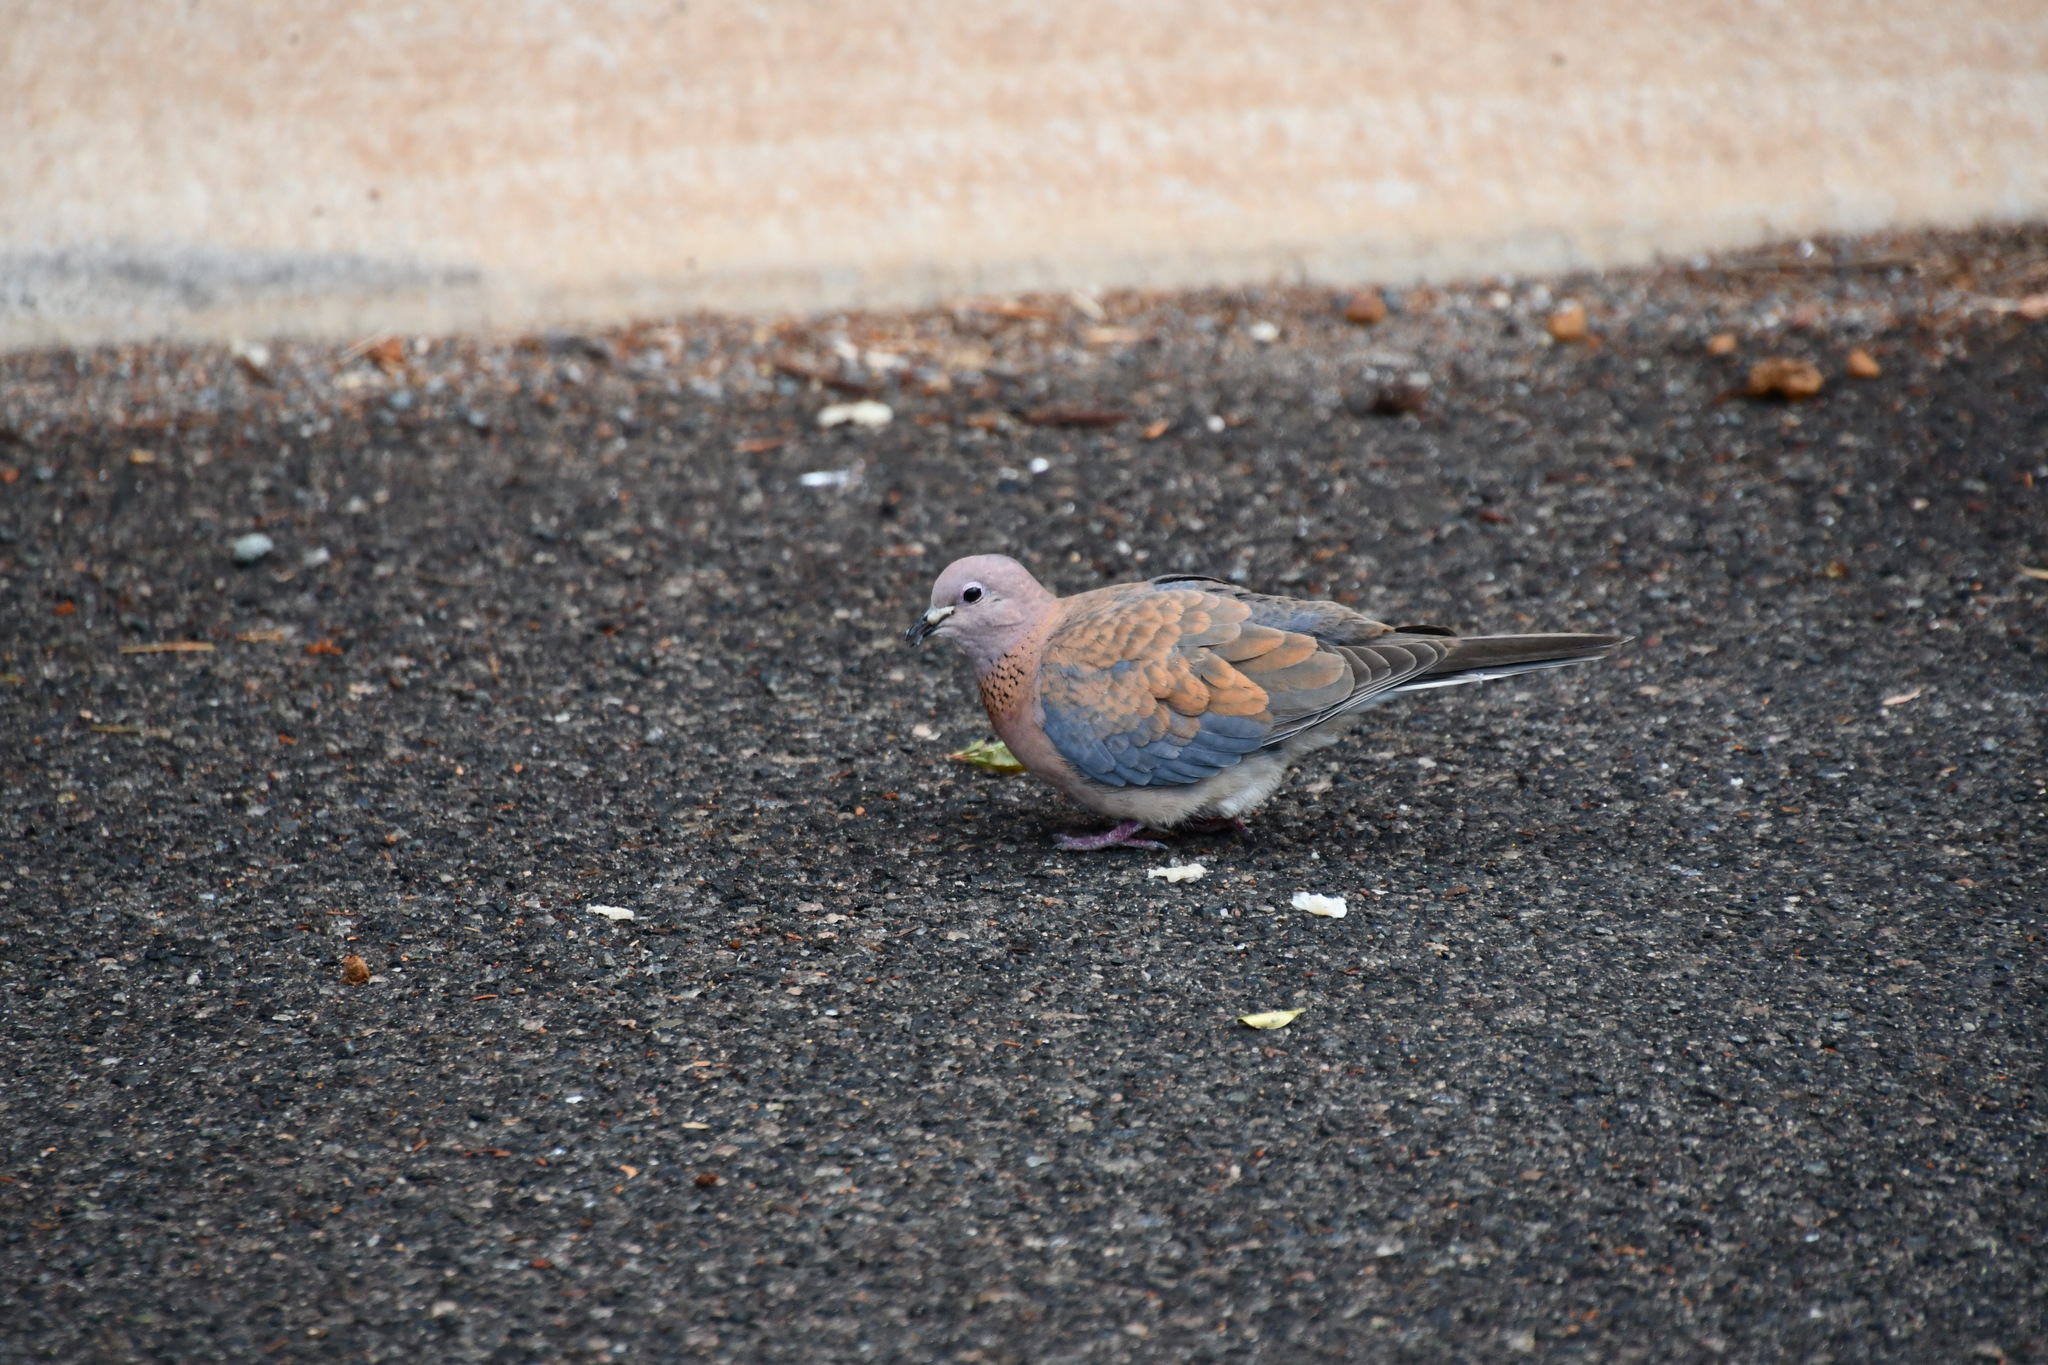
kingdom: Animalia
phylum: Chordata
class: Aves
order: Columbiformes
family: Columbidae
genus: Spilopelia
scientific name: Spilopelia senegalensis
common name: Laughing dove
